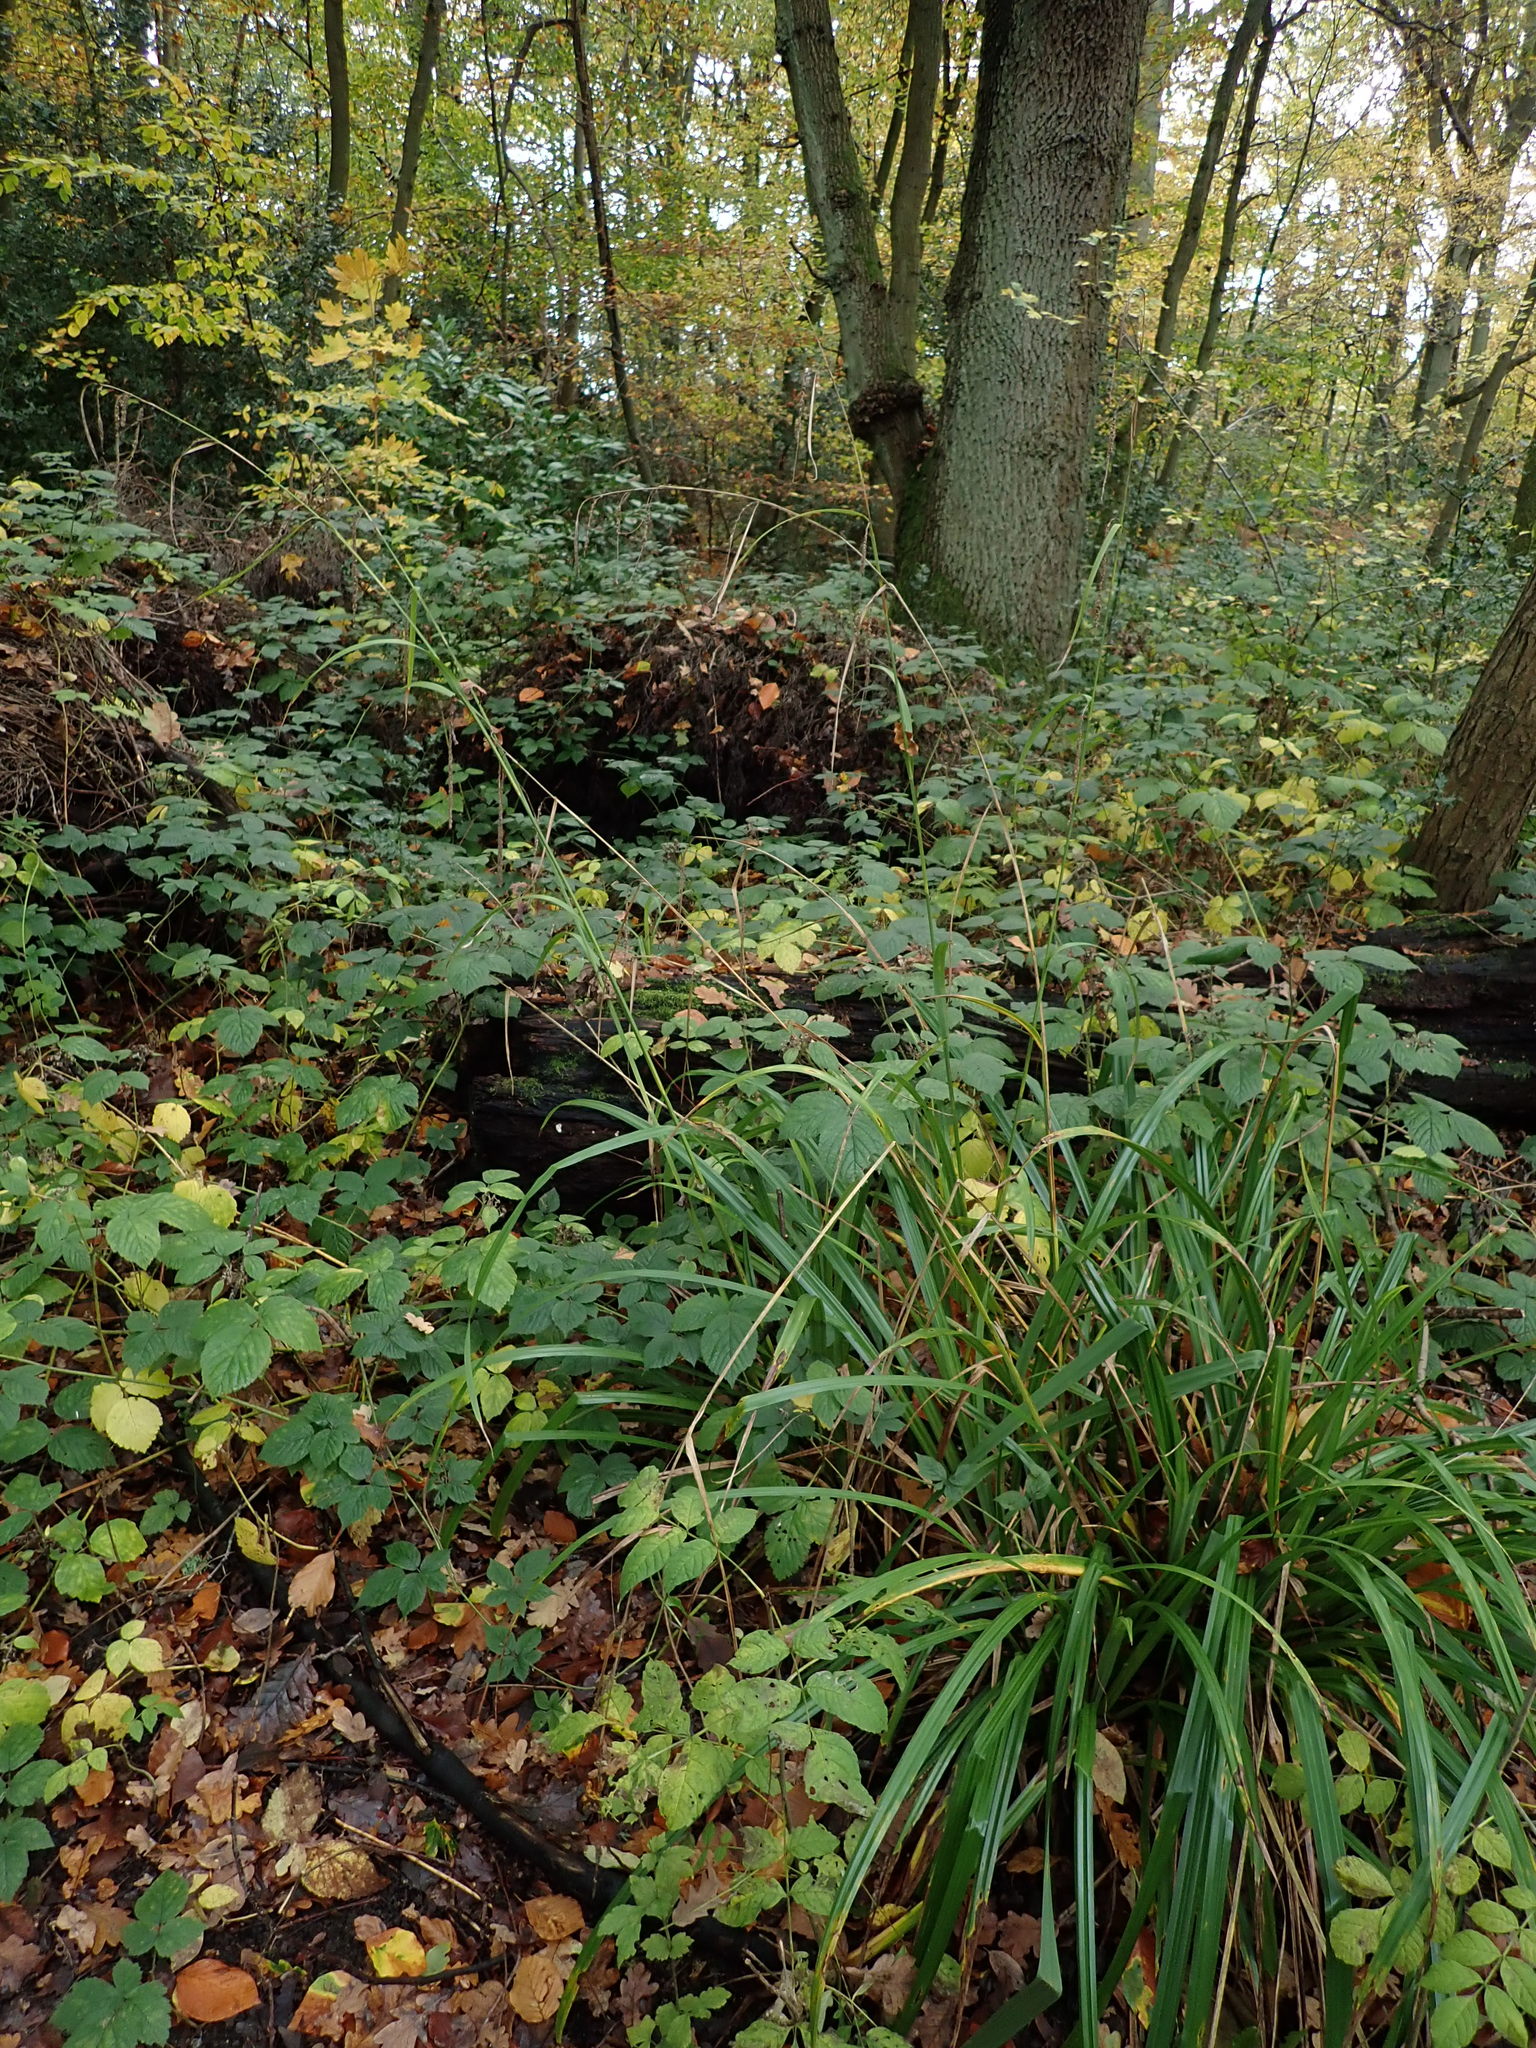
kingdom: Plantae
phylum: Tracheophyta
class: Liliopsida
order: Poales
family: Cyperaceae
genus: Carex
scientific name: Carex pendula
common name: Pendulous sedge
